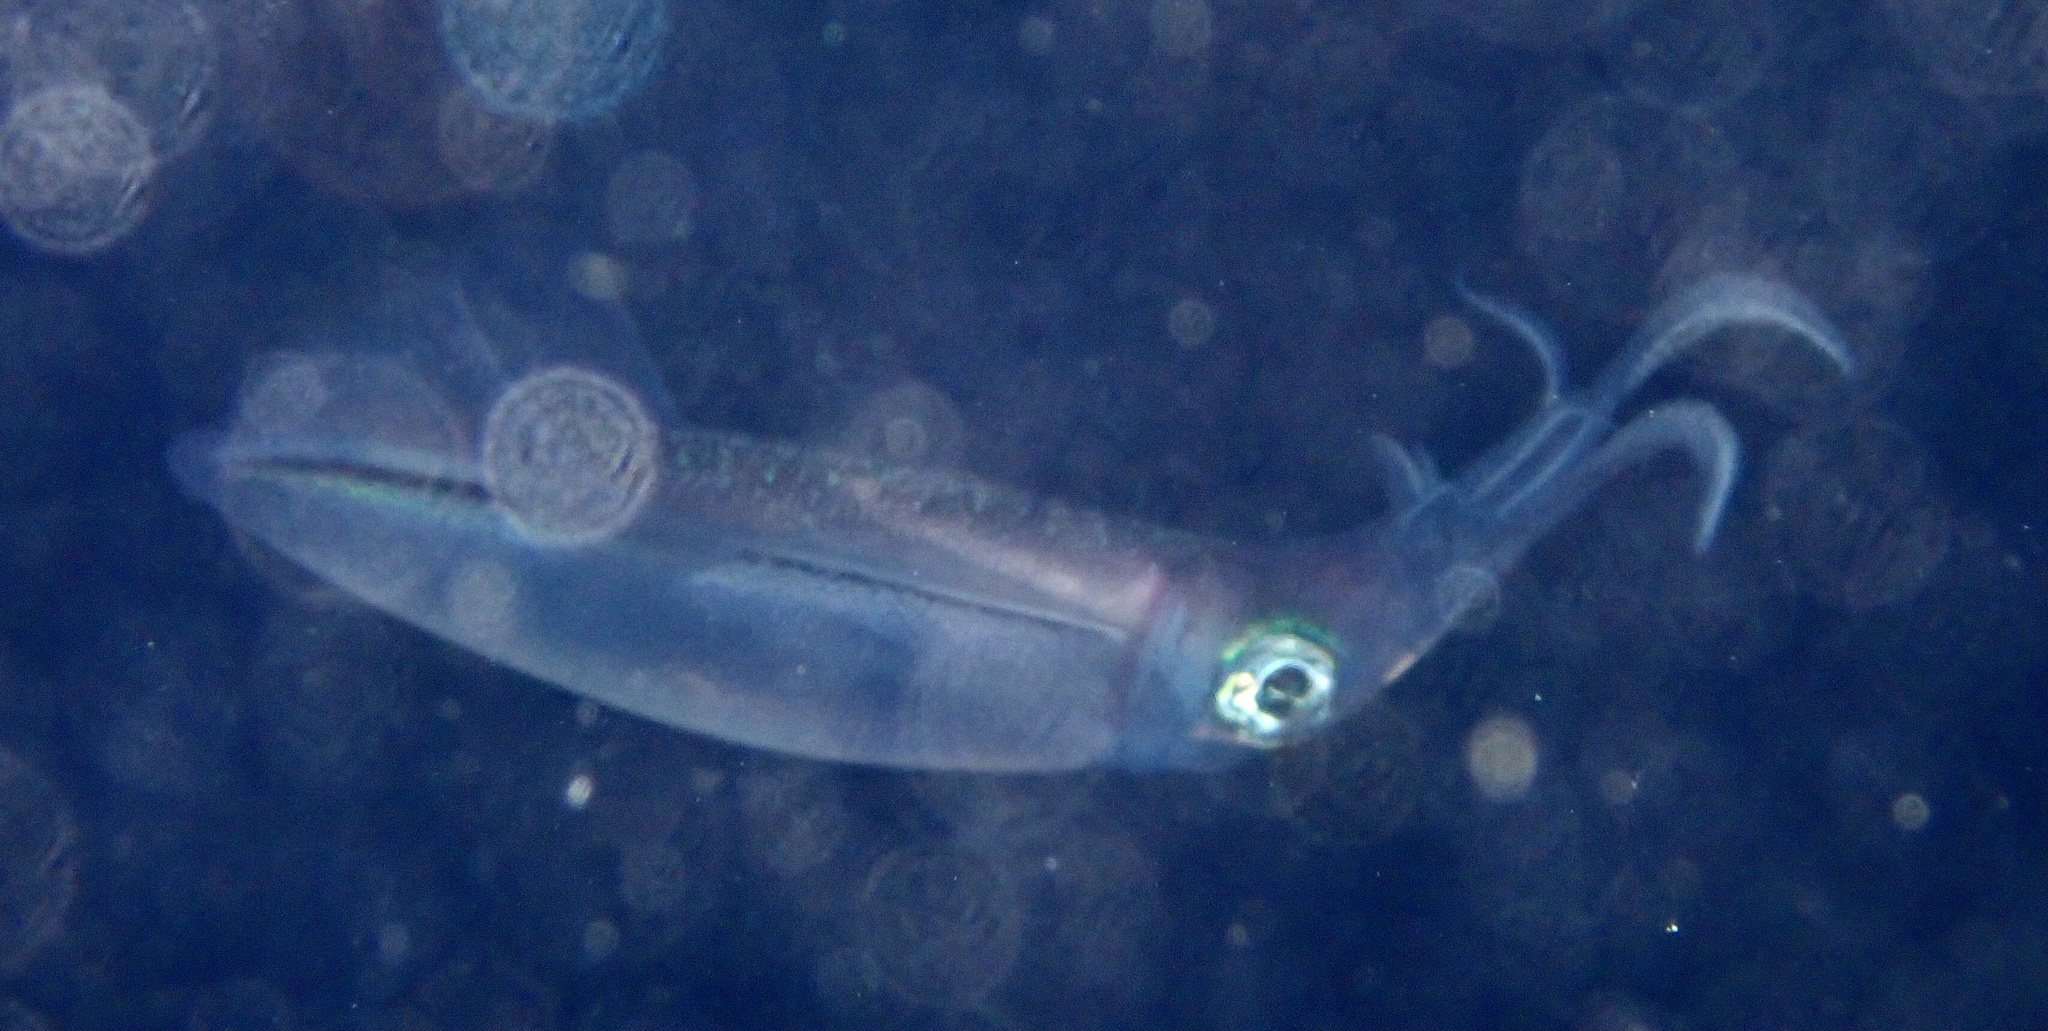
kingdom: Animalia
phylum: Mollusca
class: Cephalopoda
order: Myopsida
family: Loliginidae
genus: Sepioteuthis
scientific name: Sepioteuthis lessoniana
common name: Bigfin reef squid
